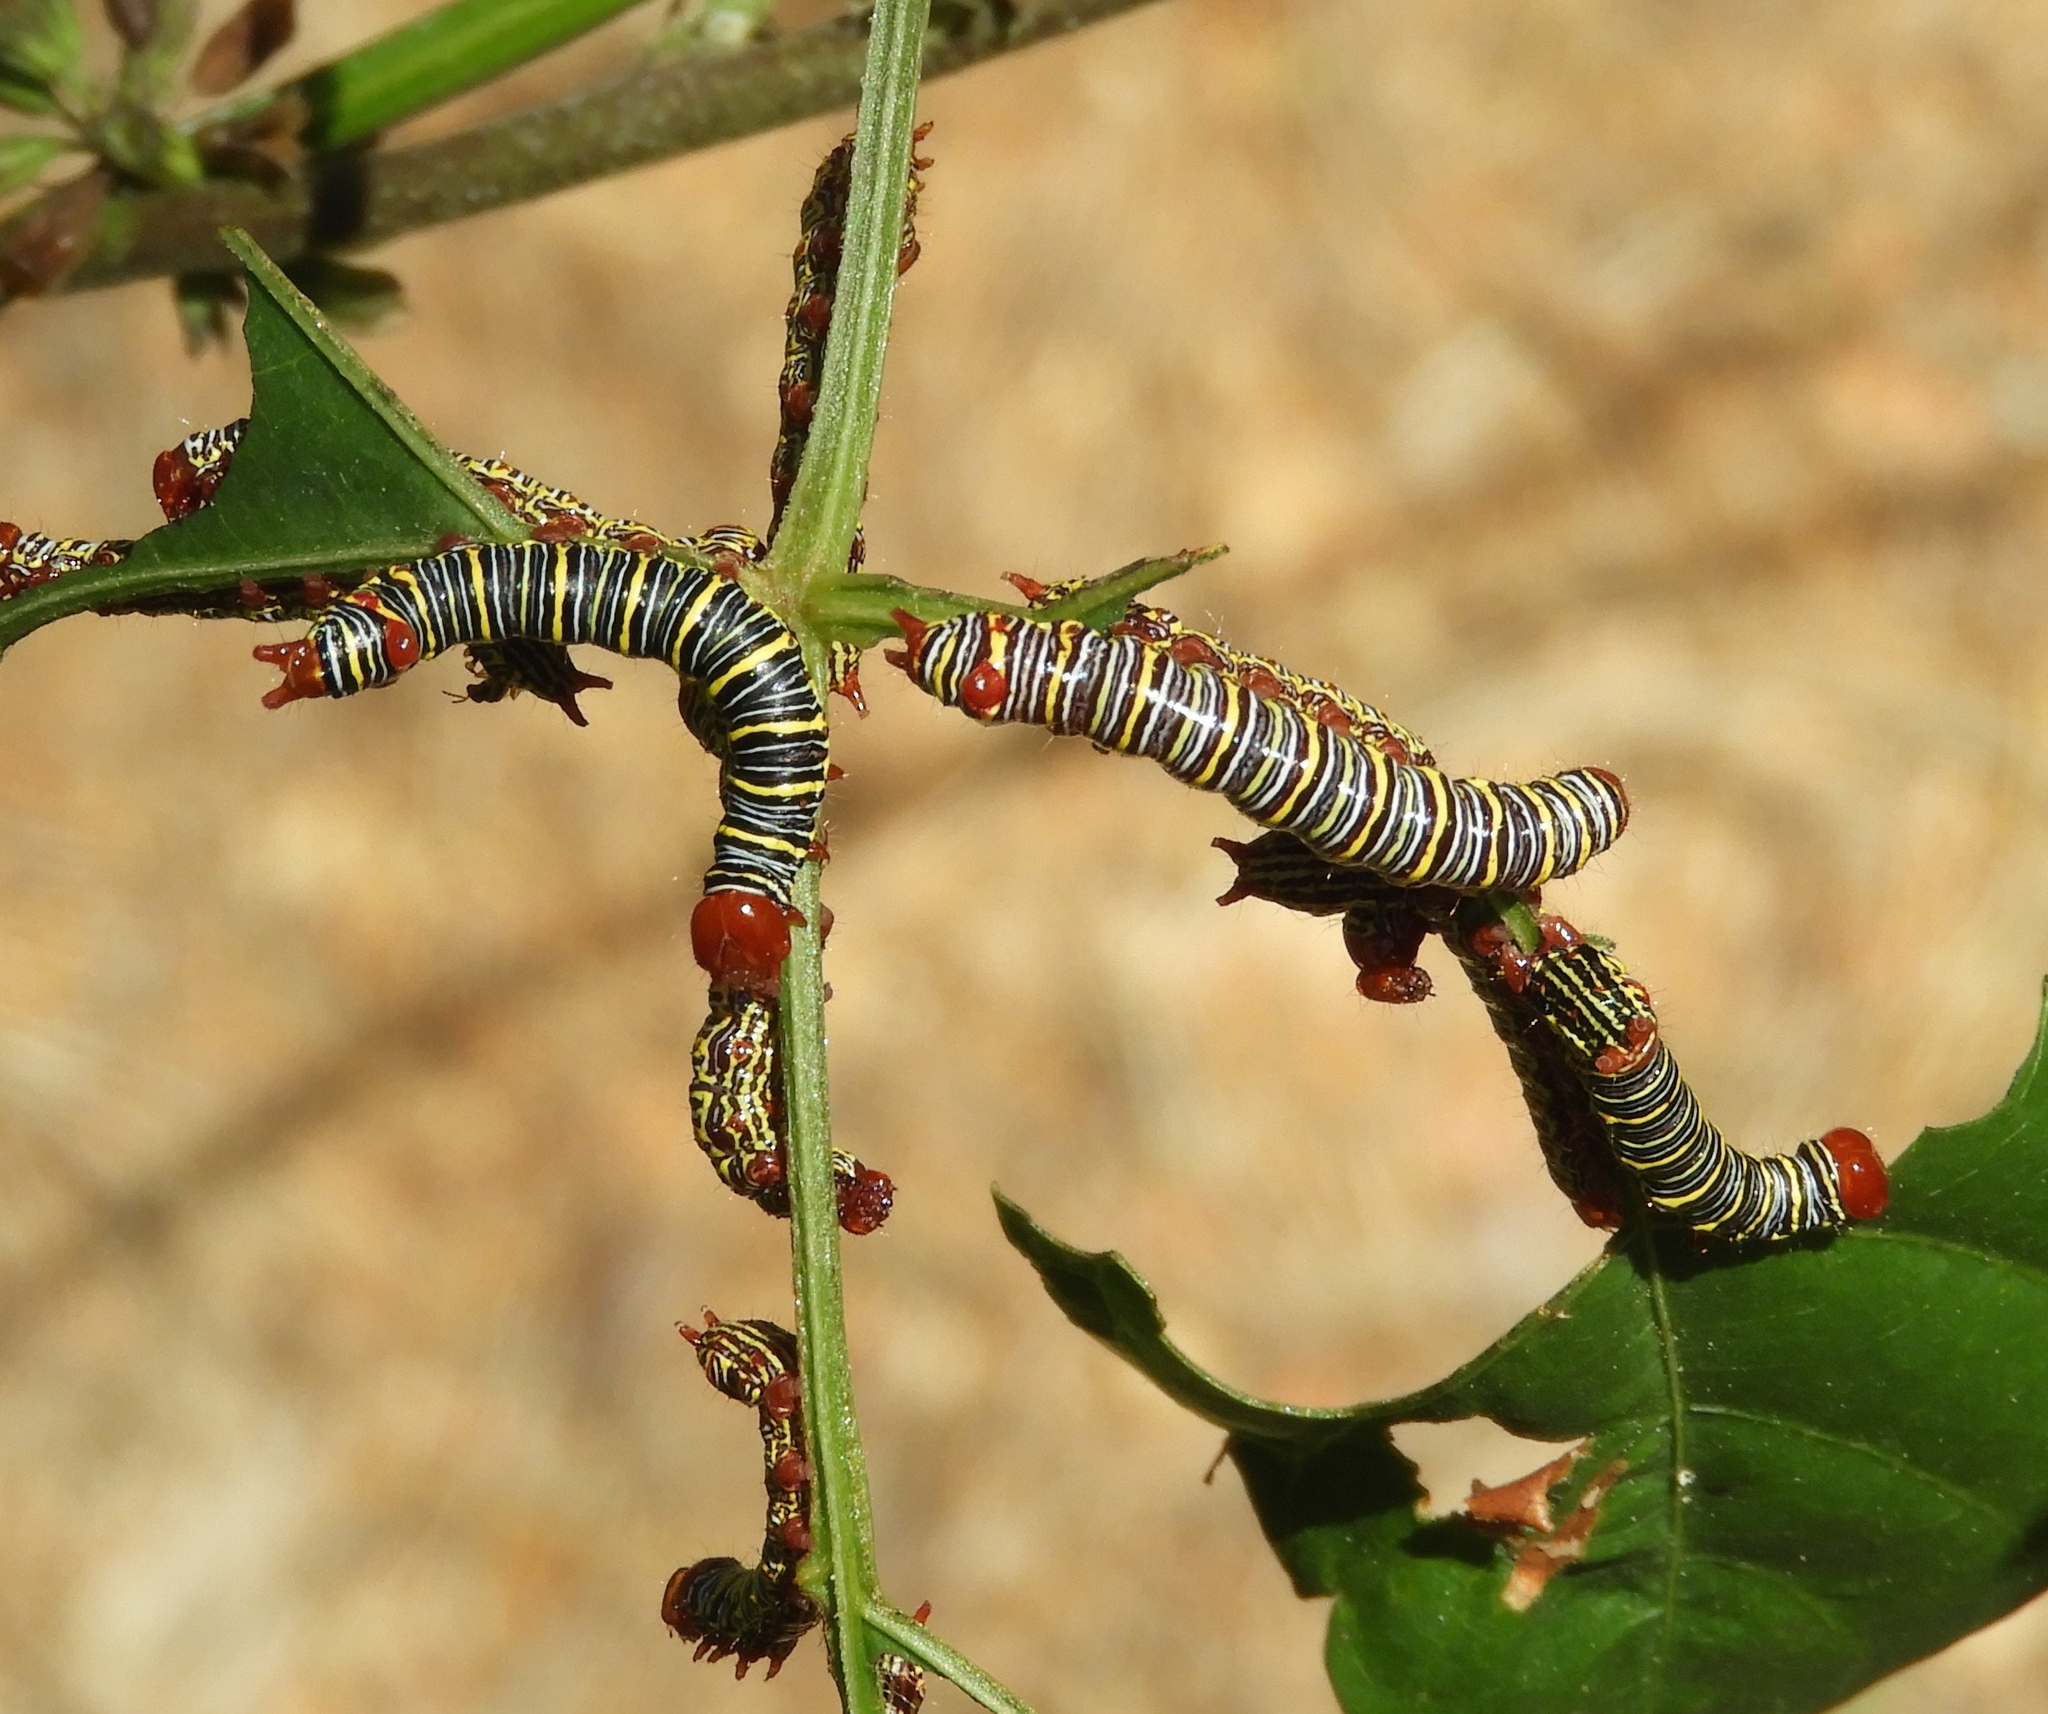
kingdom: Animalia
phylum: Arthropoda
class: Insecta
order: Lepidoptera
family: Notodontidae
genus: Didugua
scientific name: Didugua argentilinea
